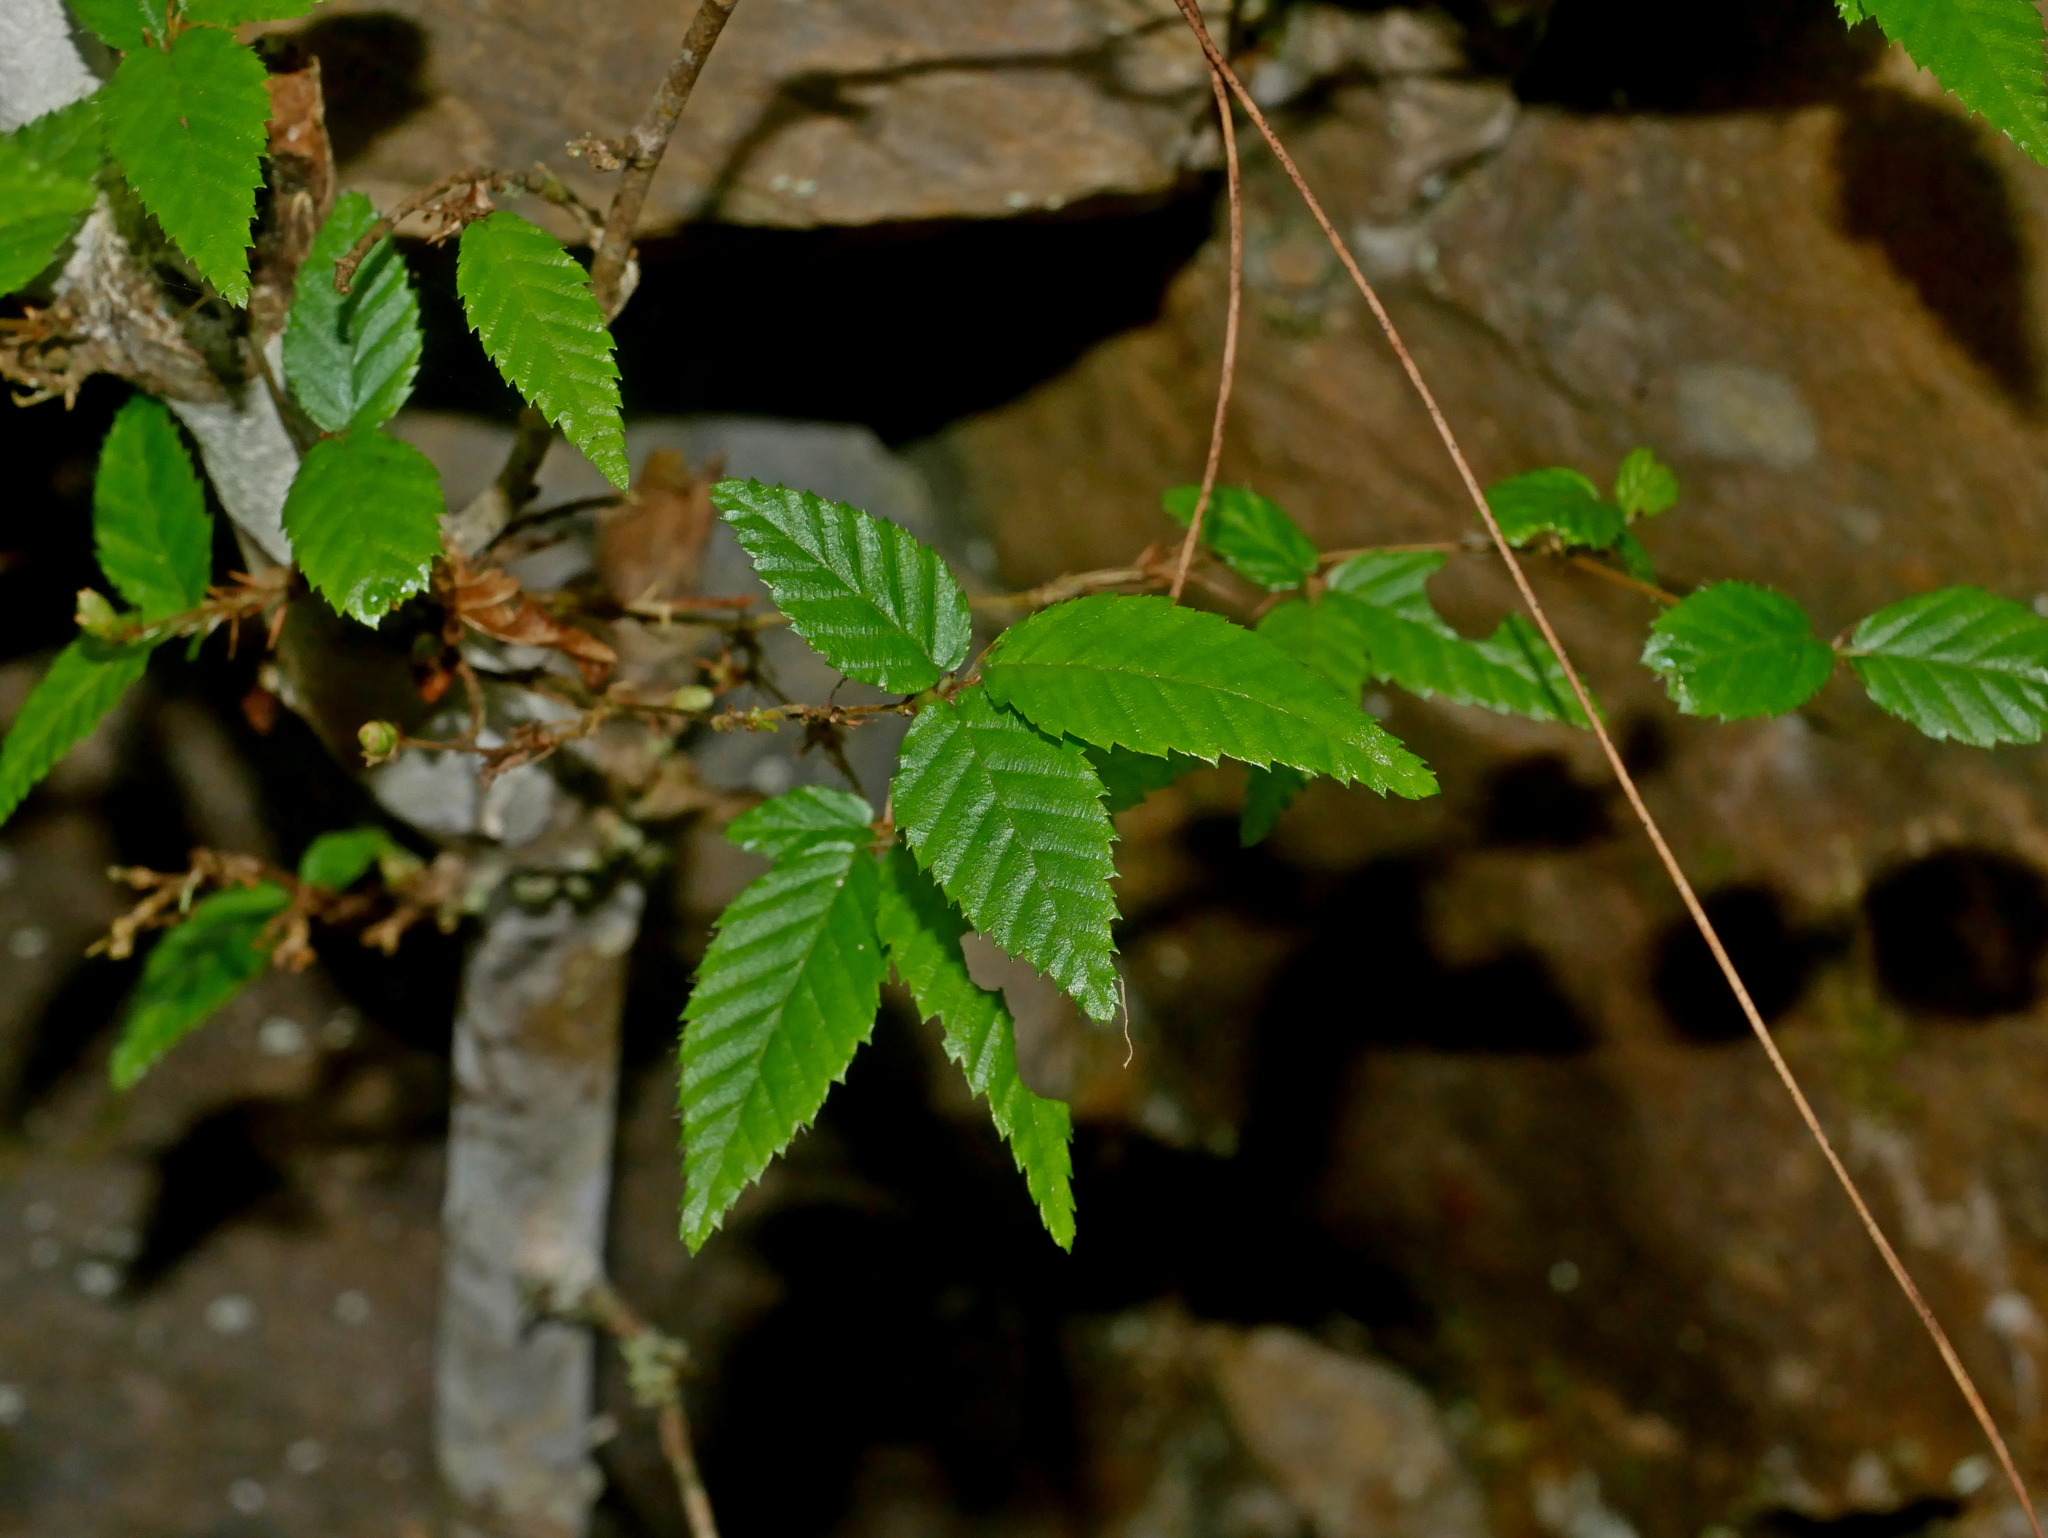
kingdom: Plantae
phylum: Tracheophyta
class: Magnoliopsida
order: Fagales
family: Betulaceae
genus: Carpinus
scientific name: Carpinus kawakamii
